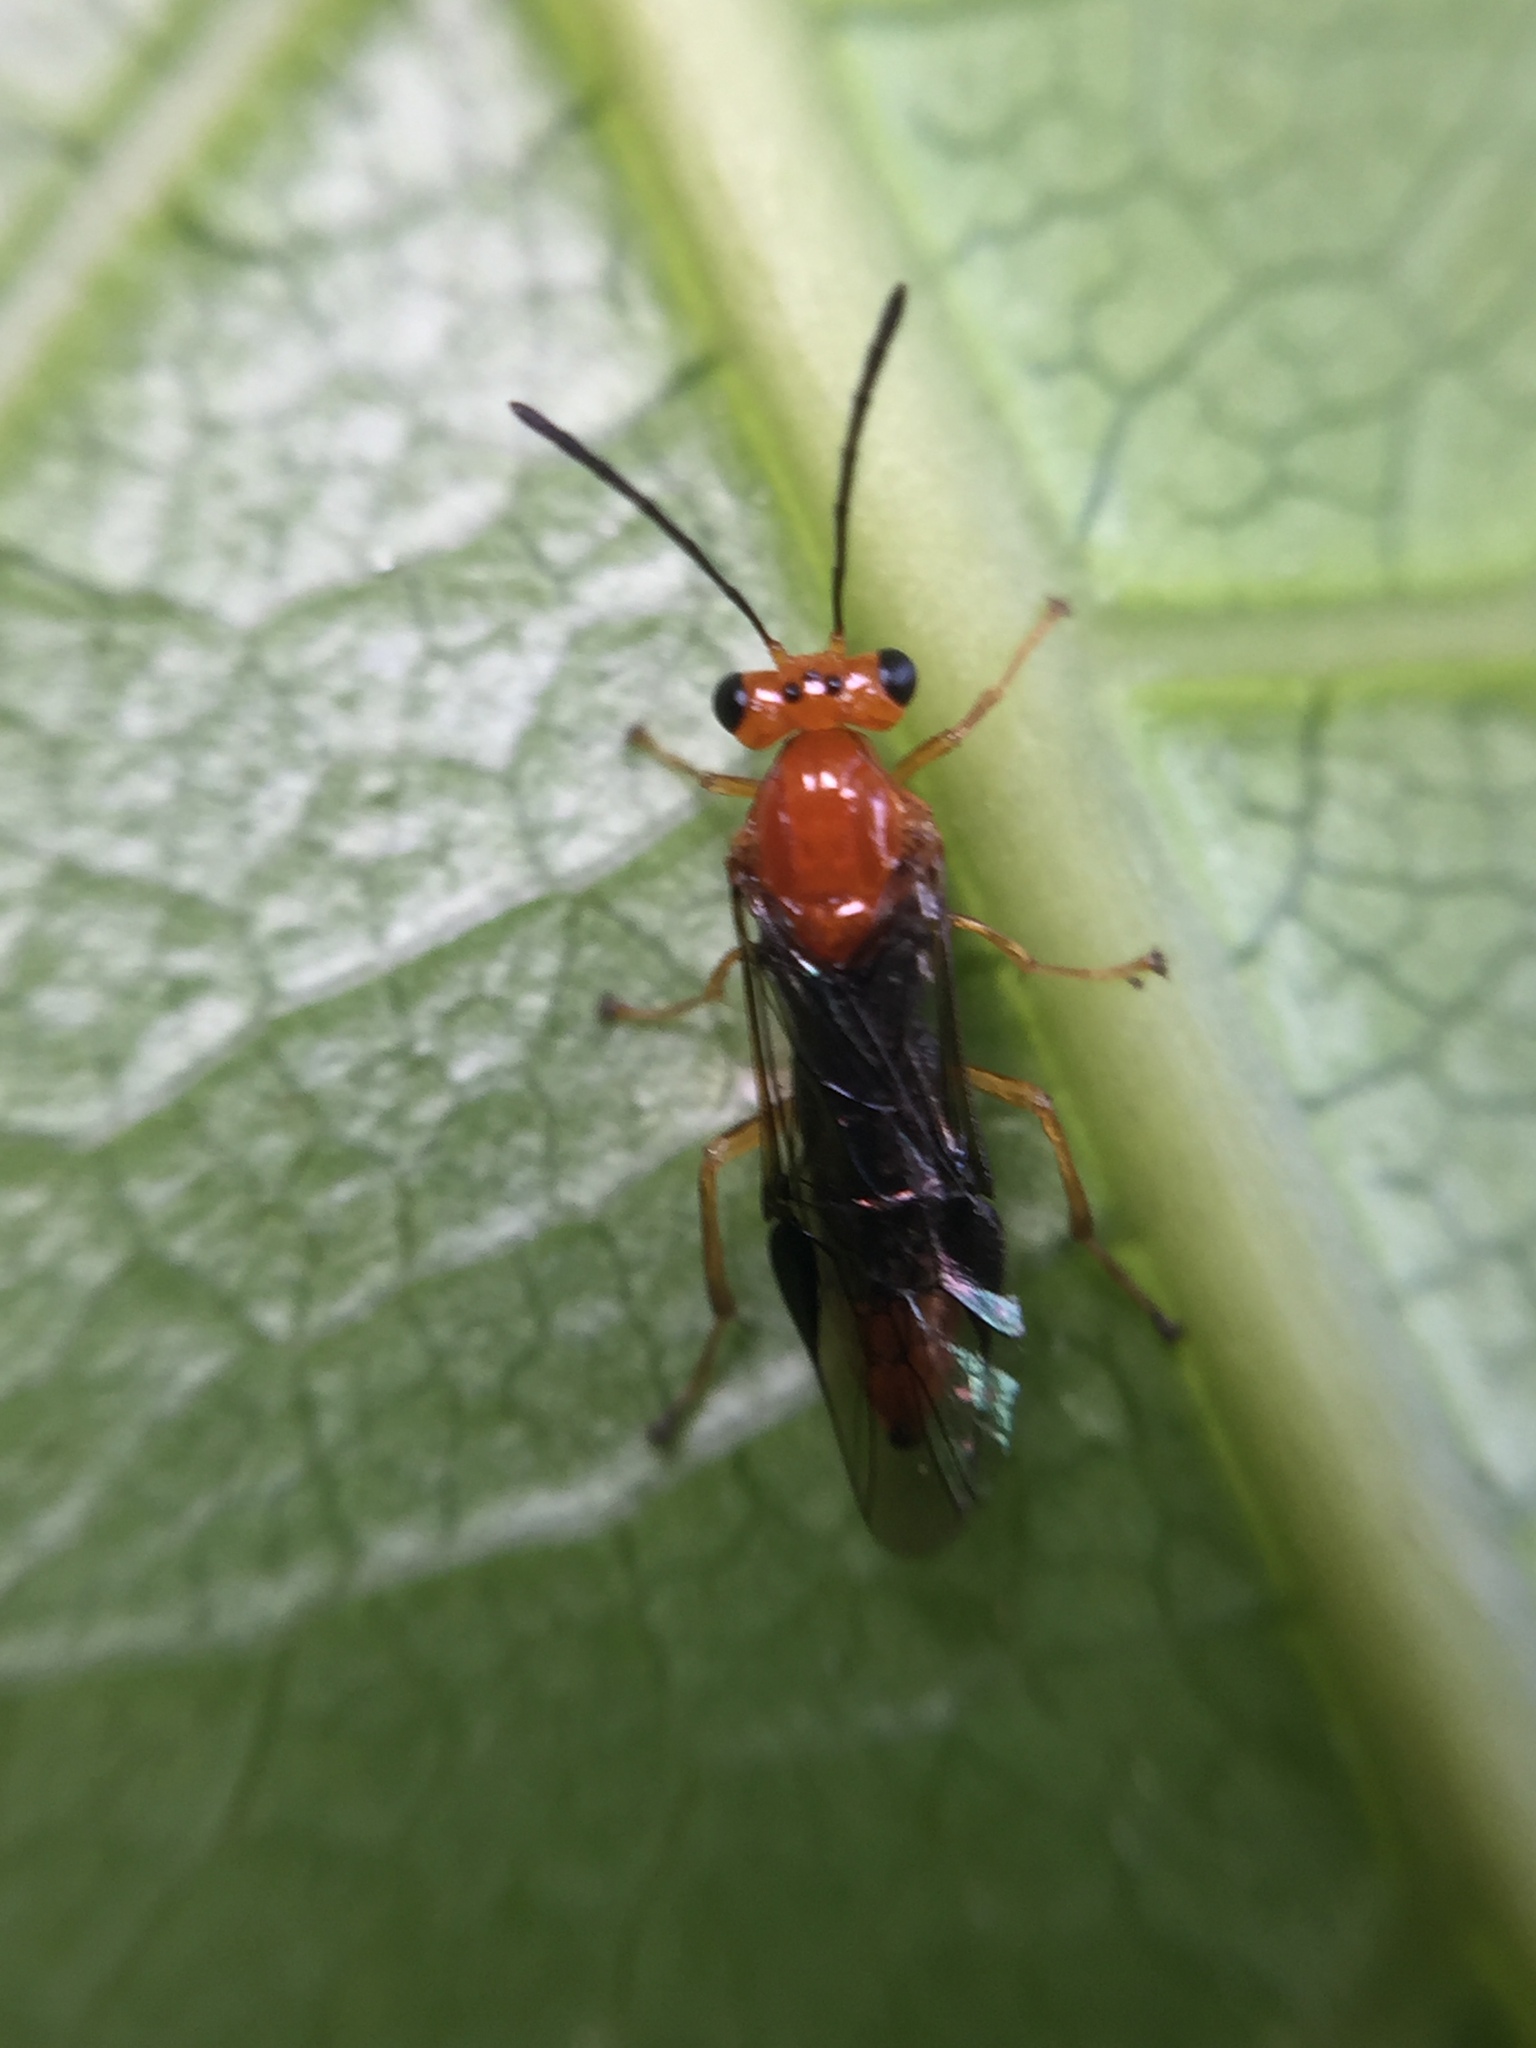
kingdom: Animalia
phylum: Arthropoda
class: Insecta
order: Hymenoptera
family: Pergidae
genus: Phylacteophaga
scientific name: Phylacteophaga froggatti
